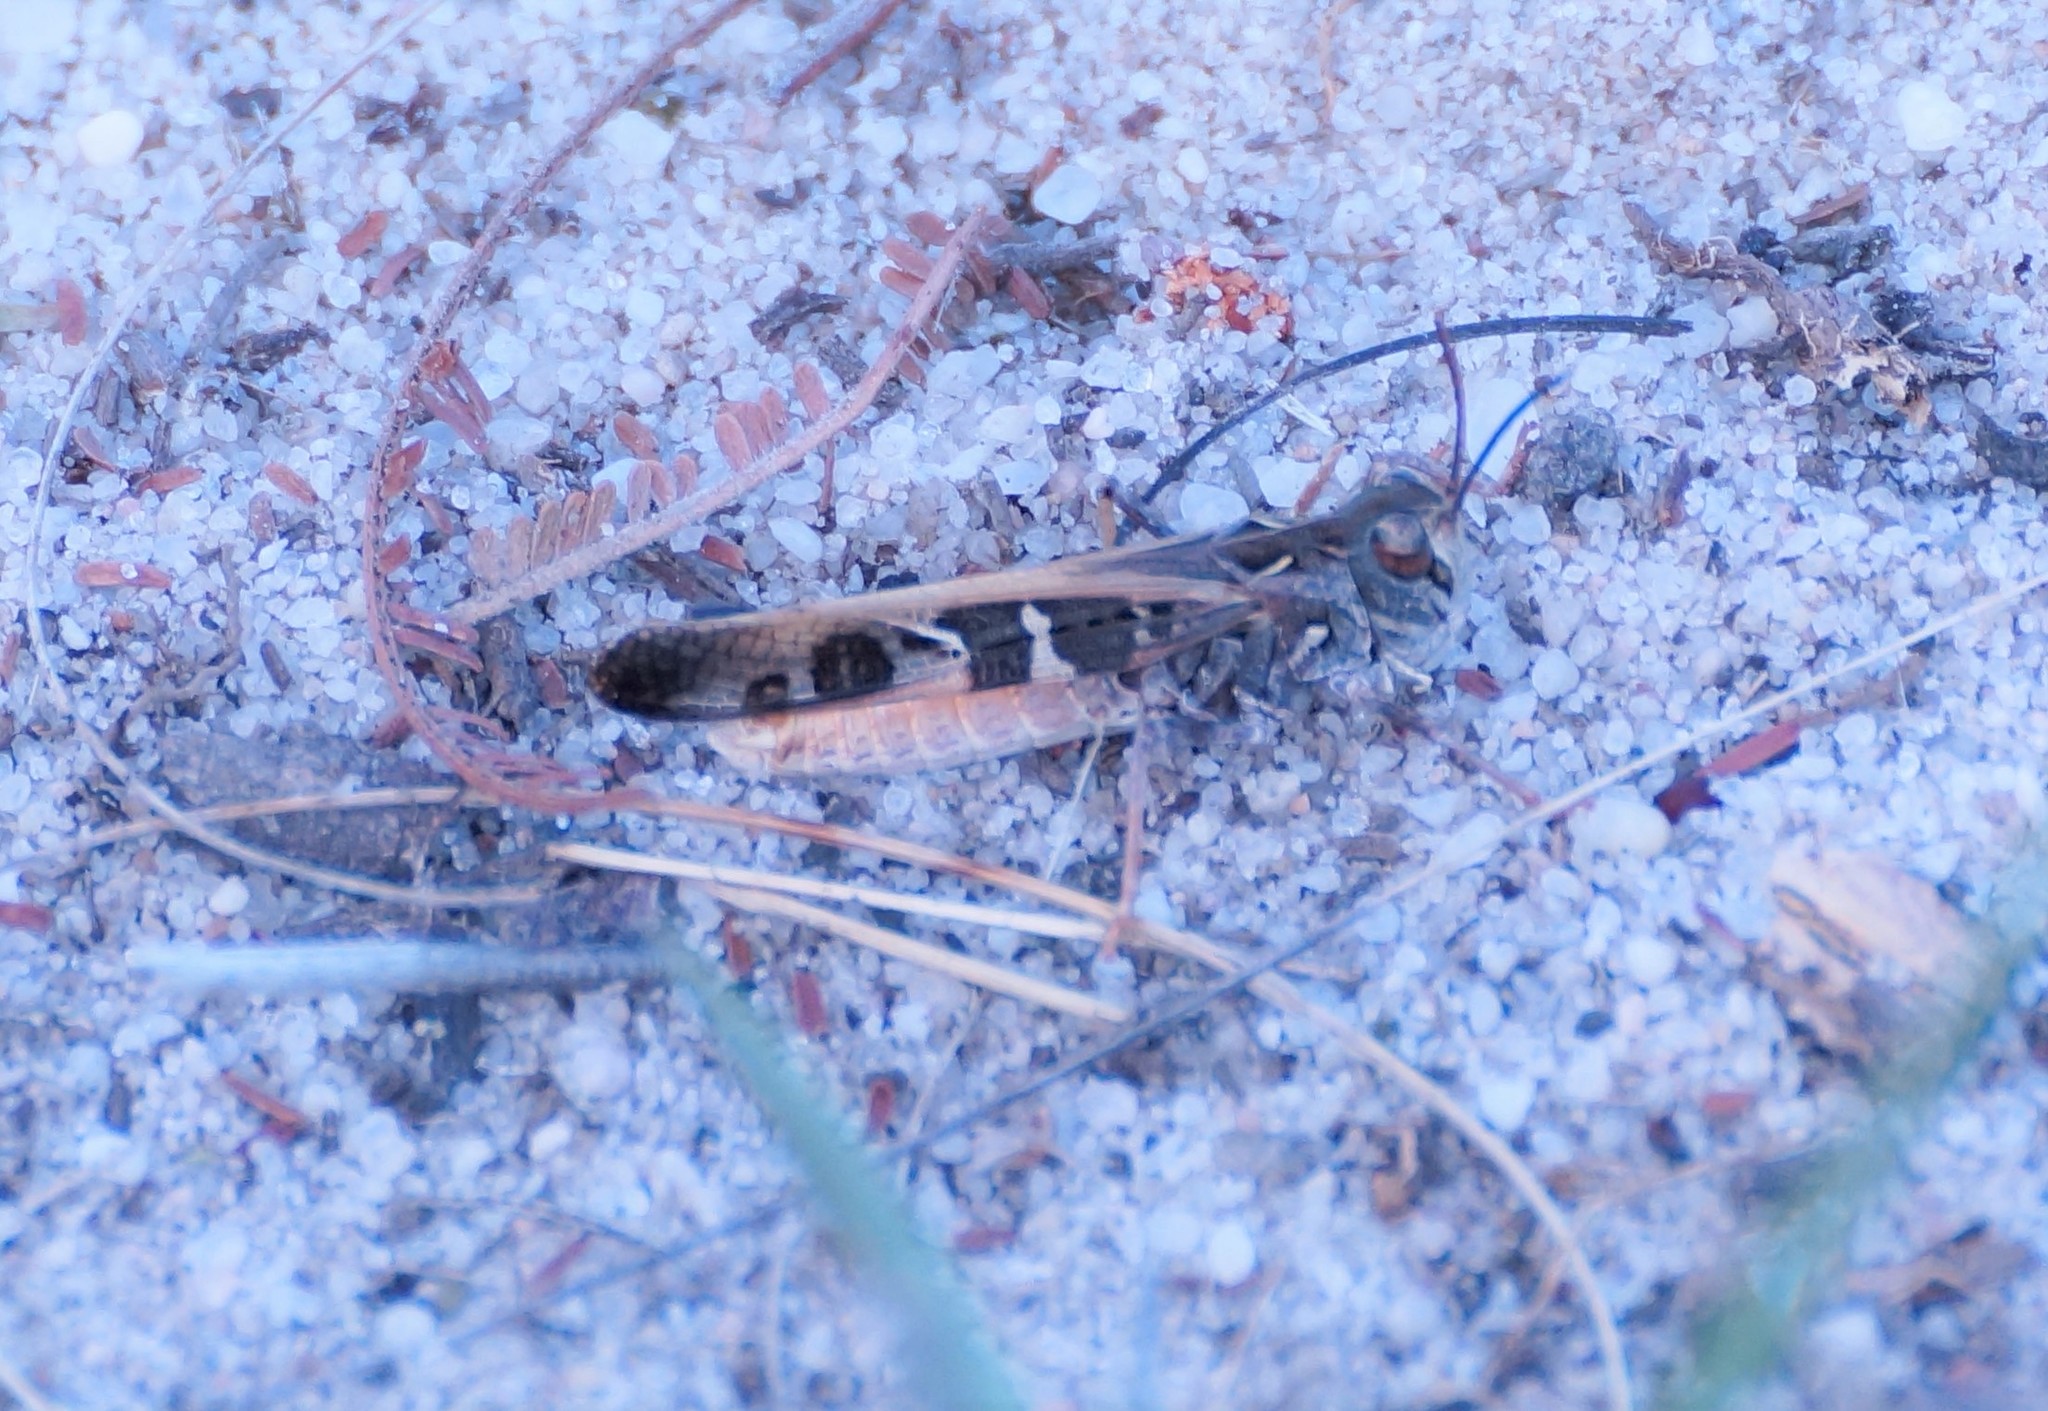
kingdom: Animalia
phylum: Arthropoda
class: Insecta
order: Orthoptera
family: Acrididae
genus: Oedaleus
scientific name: Oedaleus australis
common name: Eastern oedaleus
